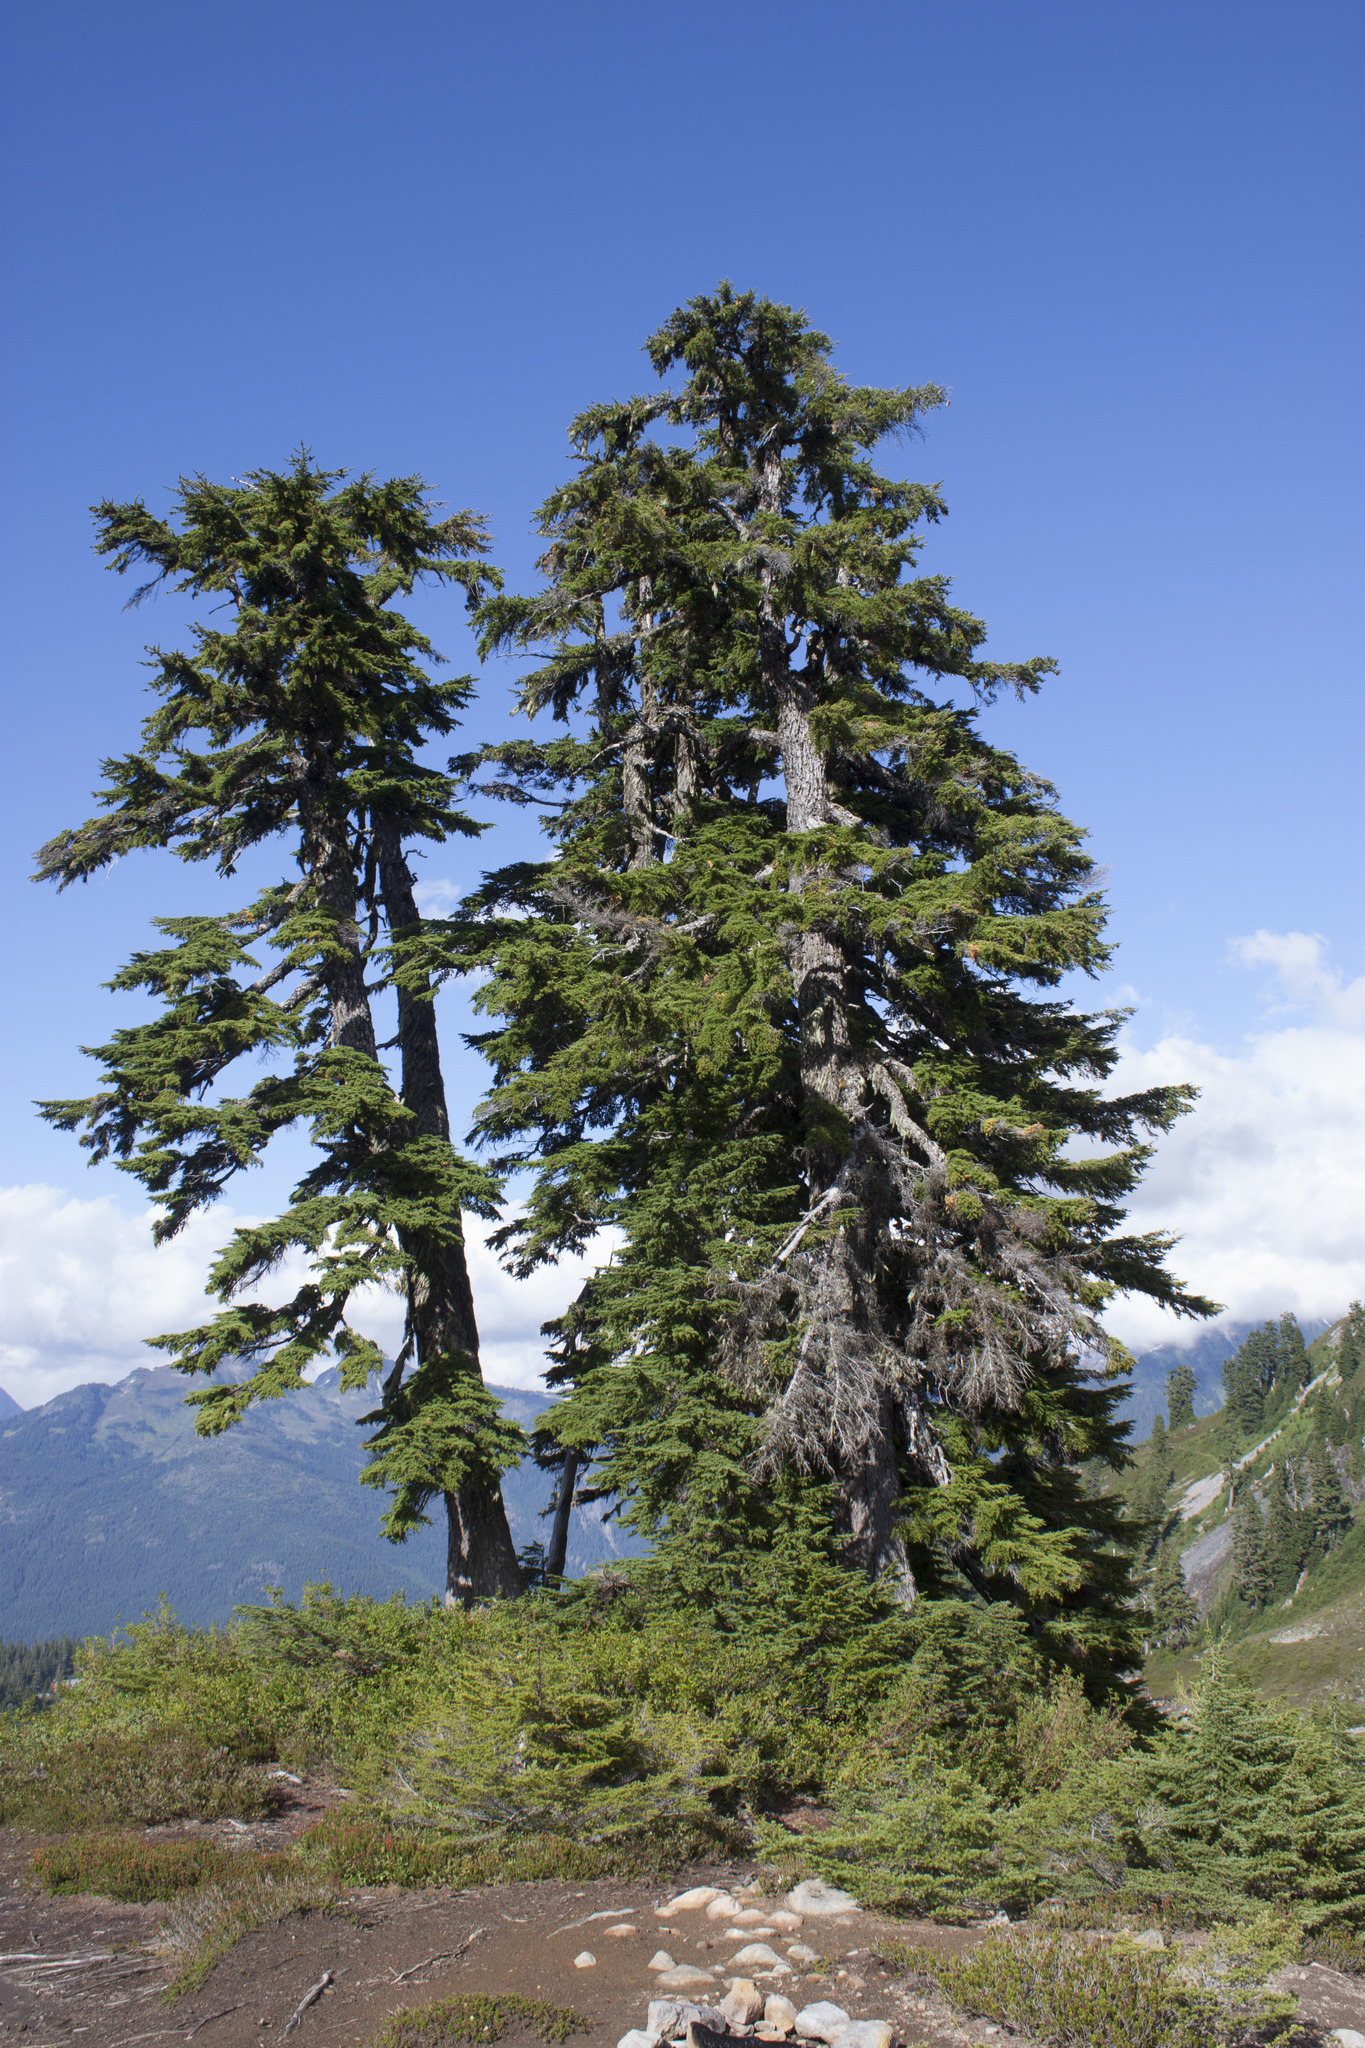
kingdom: Plantae
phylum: Tracheophyta
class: Pinopsida
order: Pinales
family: Pinaceae
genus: Tsuga
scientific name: Tsuga mertensiana
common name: Mountain hemlock
